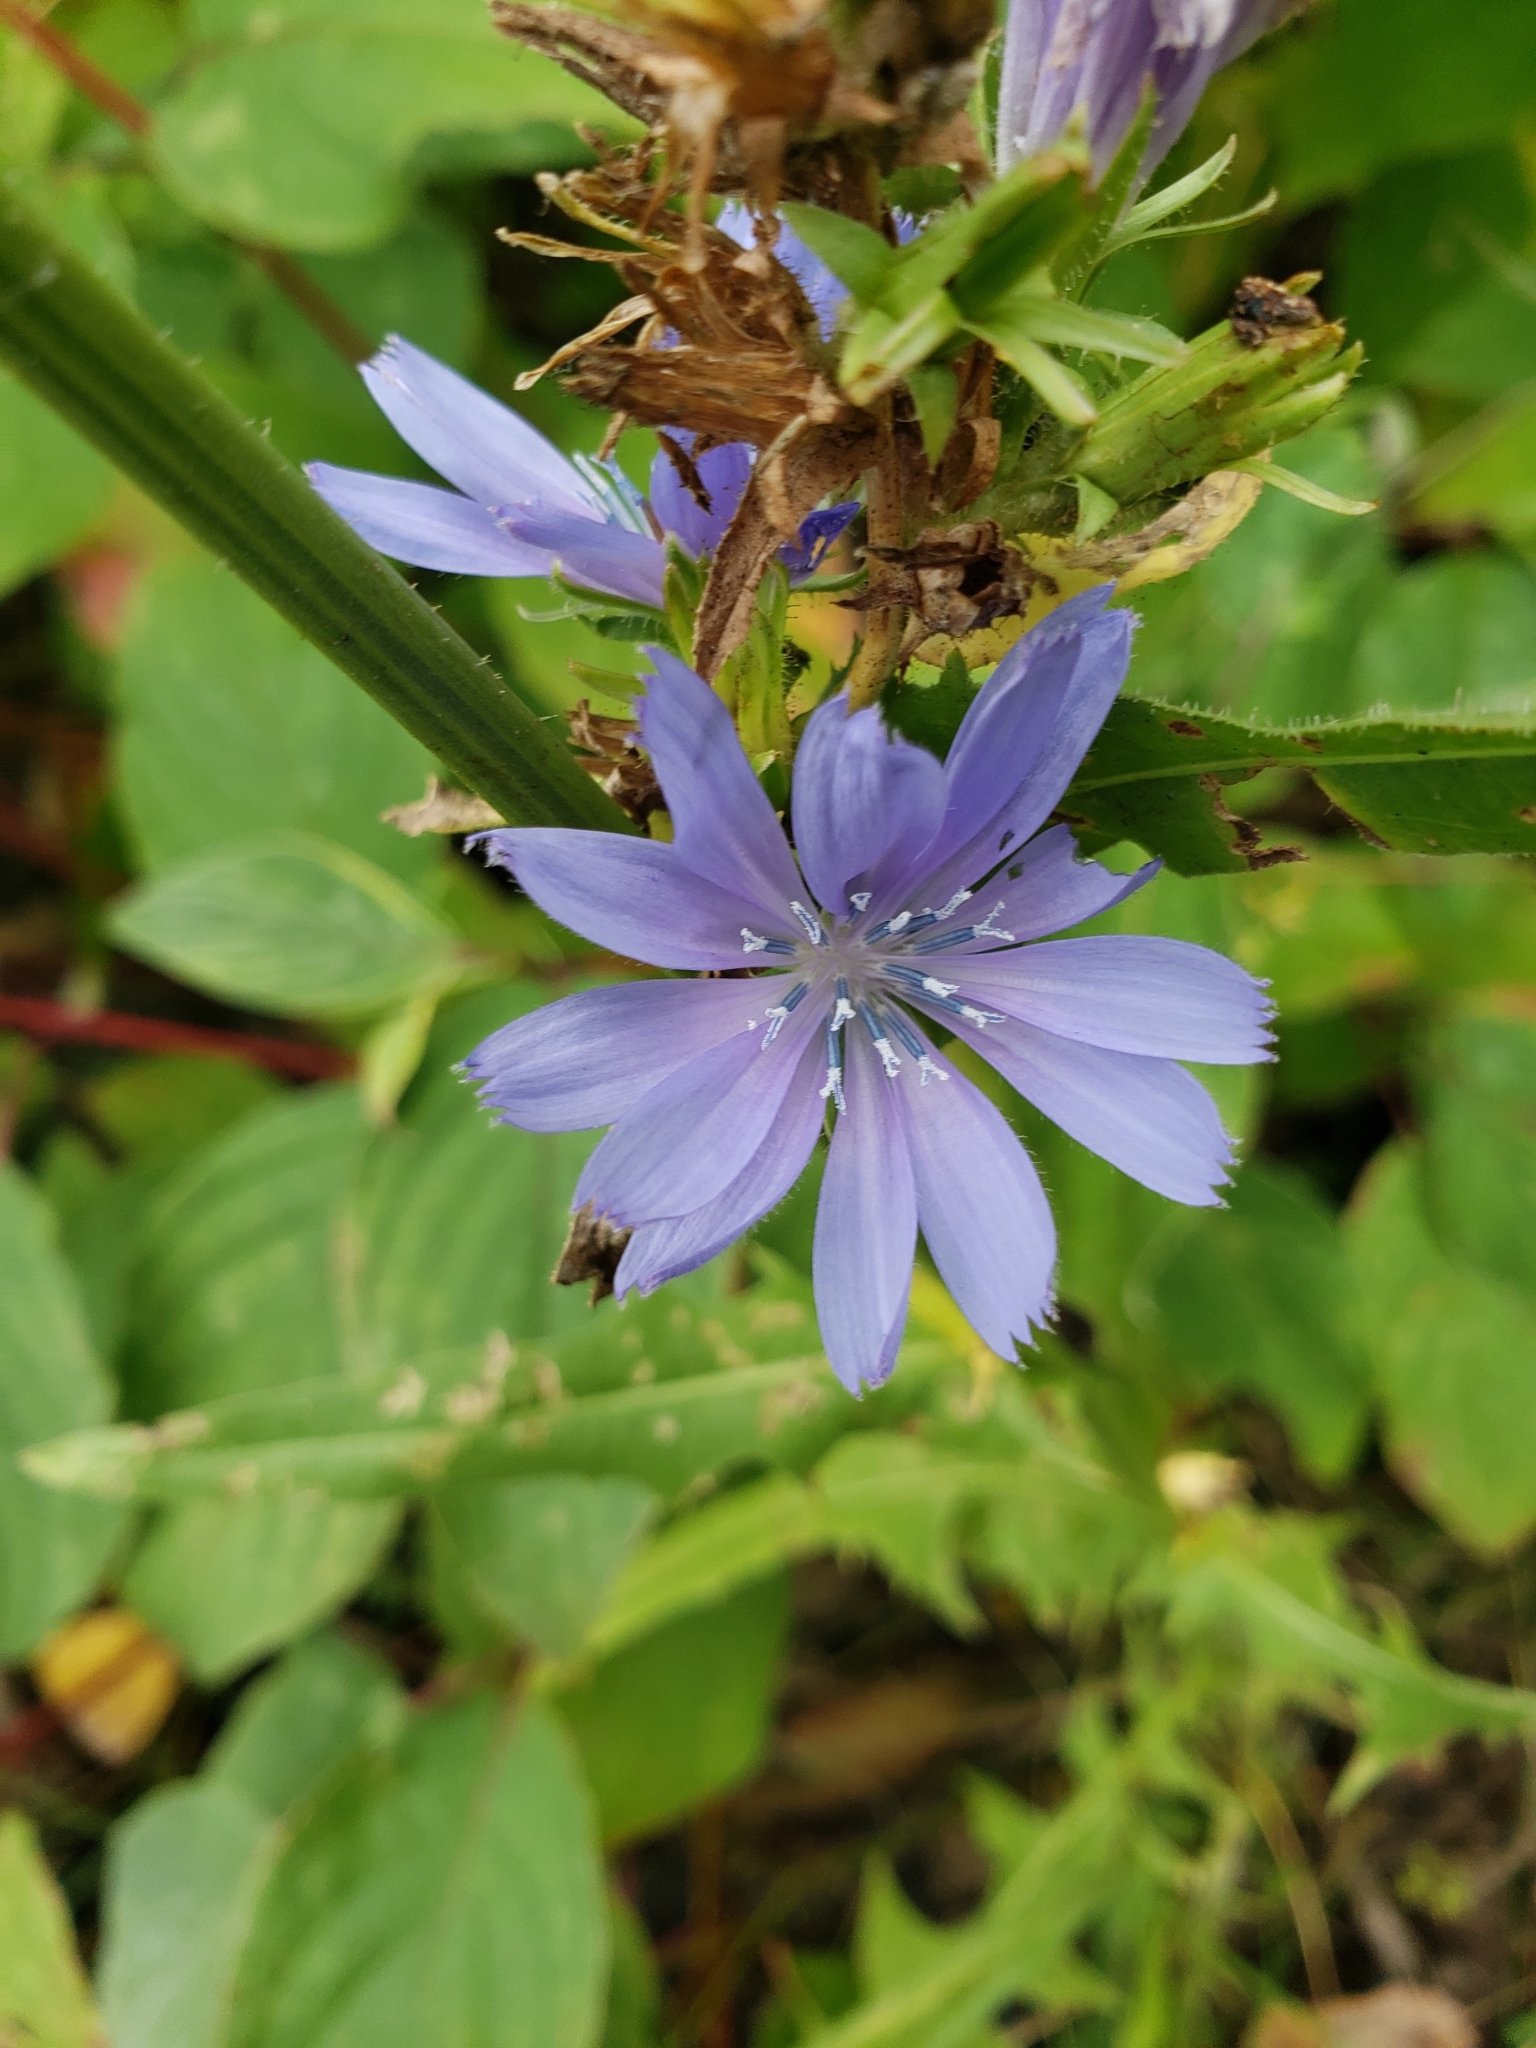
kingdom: Plantae
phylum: Tracheophyta
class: Magnoliopsida
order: Asterales
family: Asteraceae
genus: Cichorium
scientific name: Cichorium intybus
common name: Chicory
